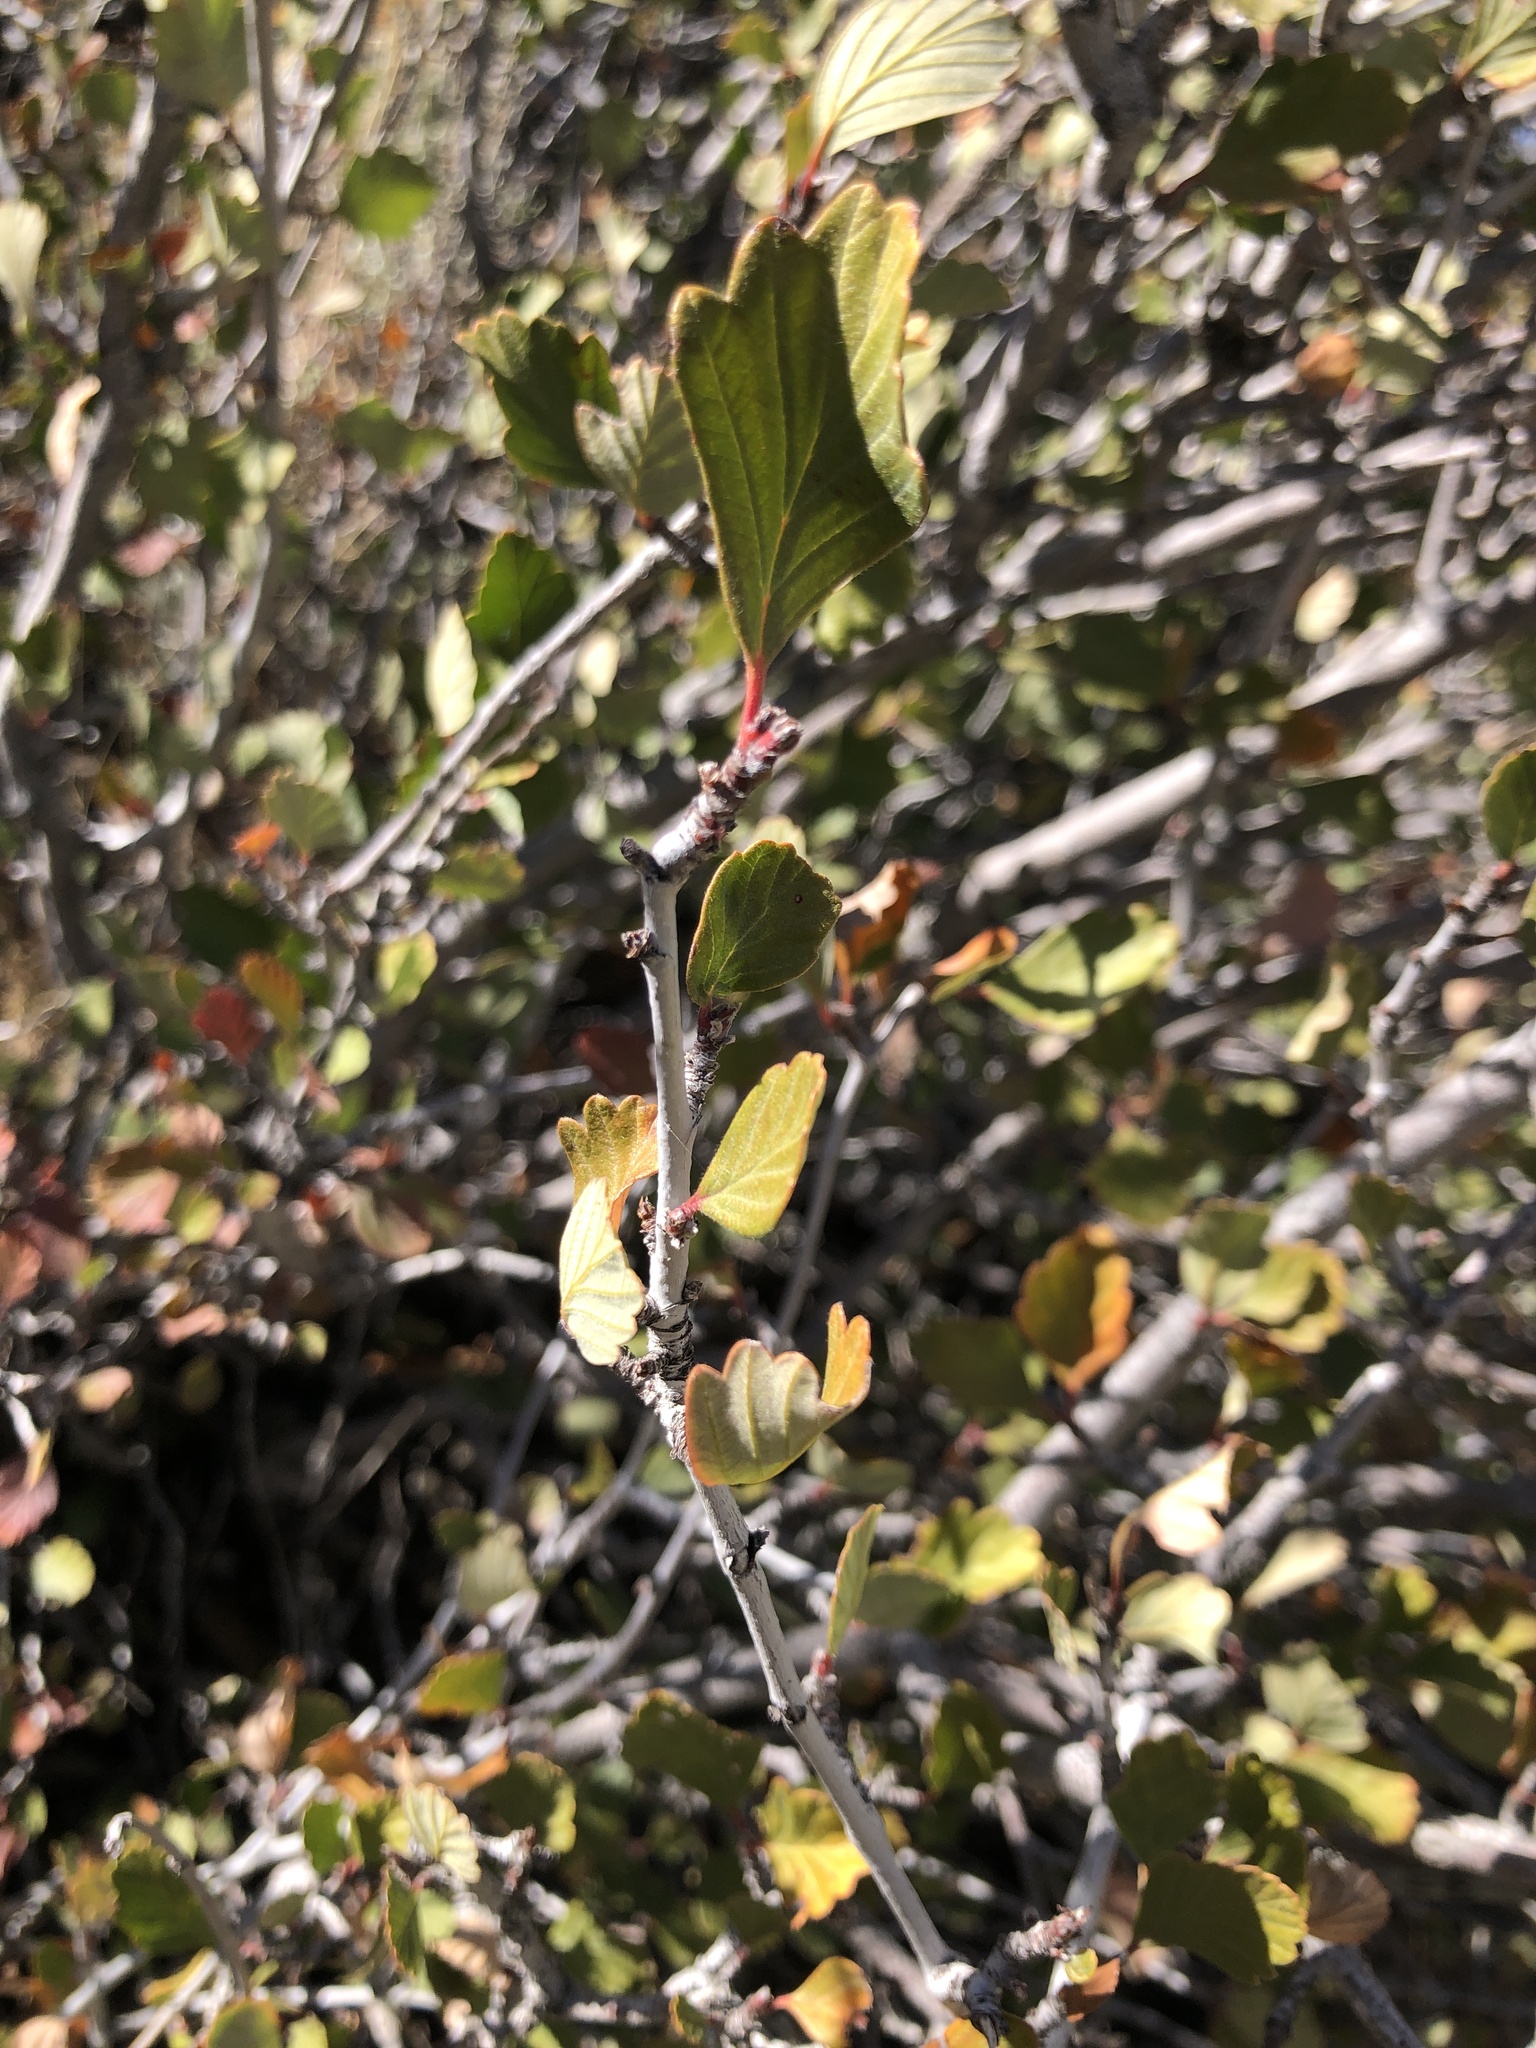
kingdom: Plantae
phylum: Tracheophyta
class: Magnoliopsida
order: Rosales
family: Rosaceae
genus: Cercocarpus
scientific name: Cercocarpus montanus
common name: Alder-leaf cercocarpus
